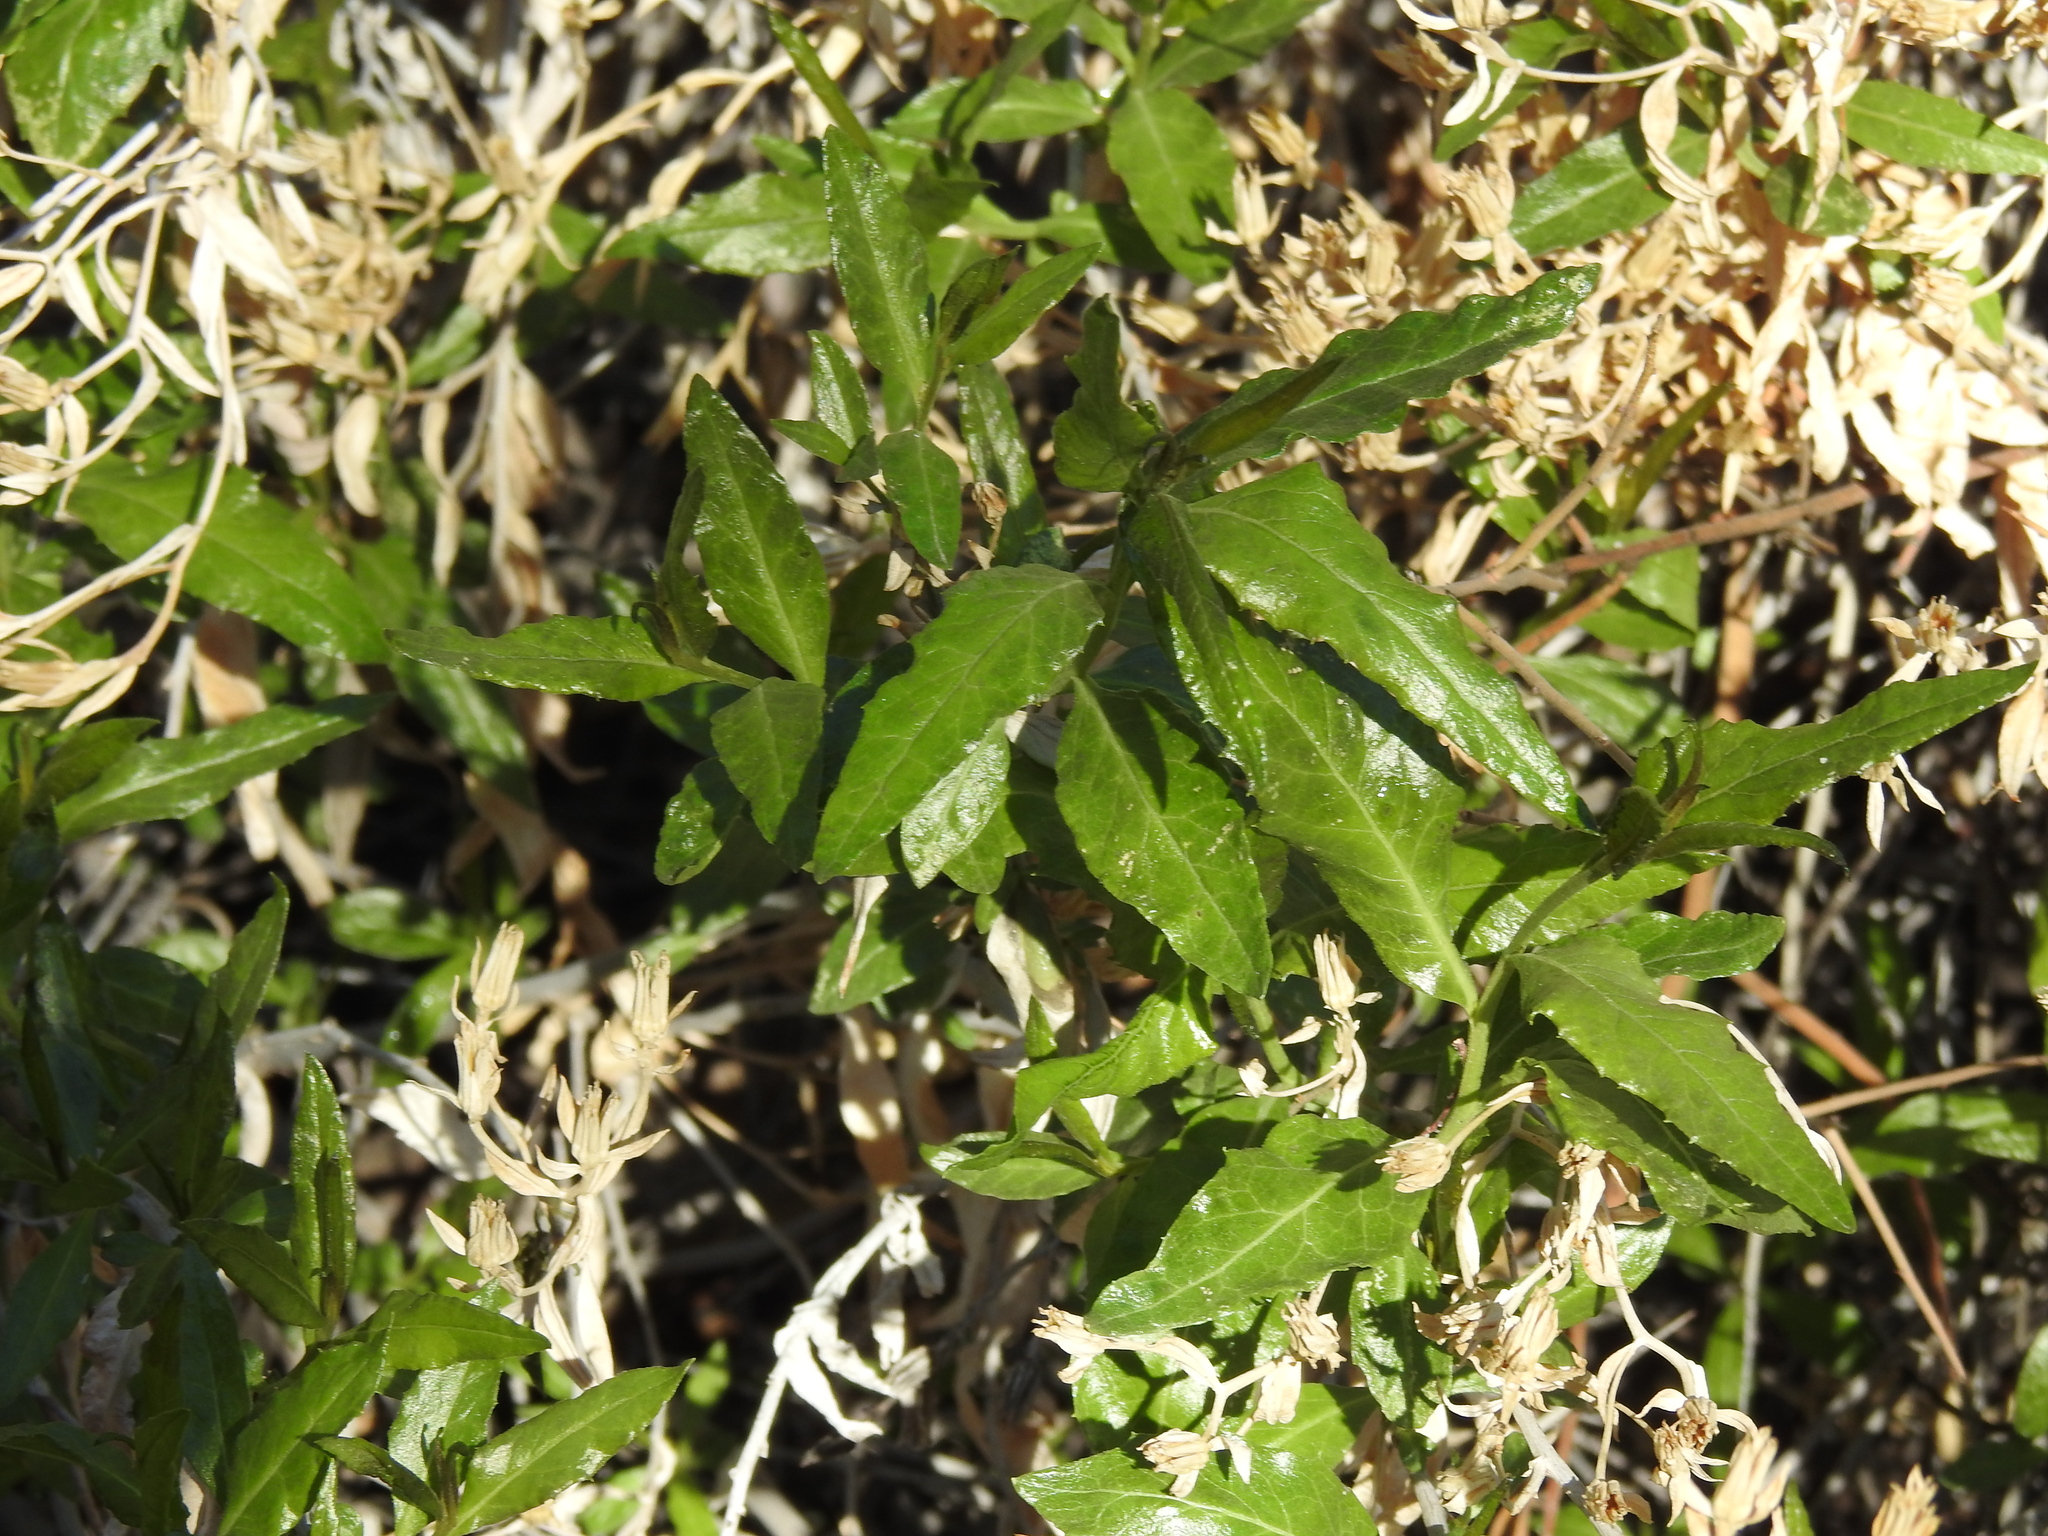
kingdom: Plantae
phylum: Tracheophyta
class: Magnoliopsida
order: Asterales
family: Asteraceae
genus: Trixis
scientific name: Trixis californica
